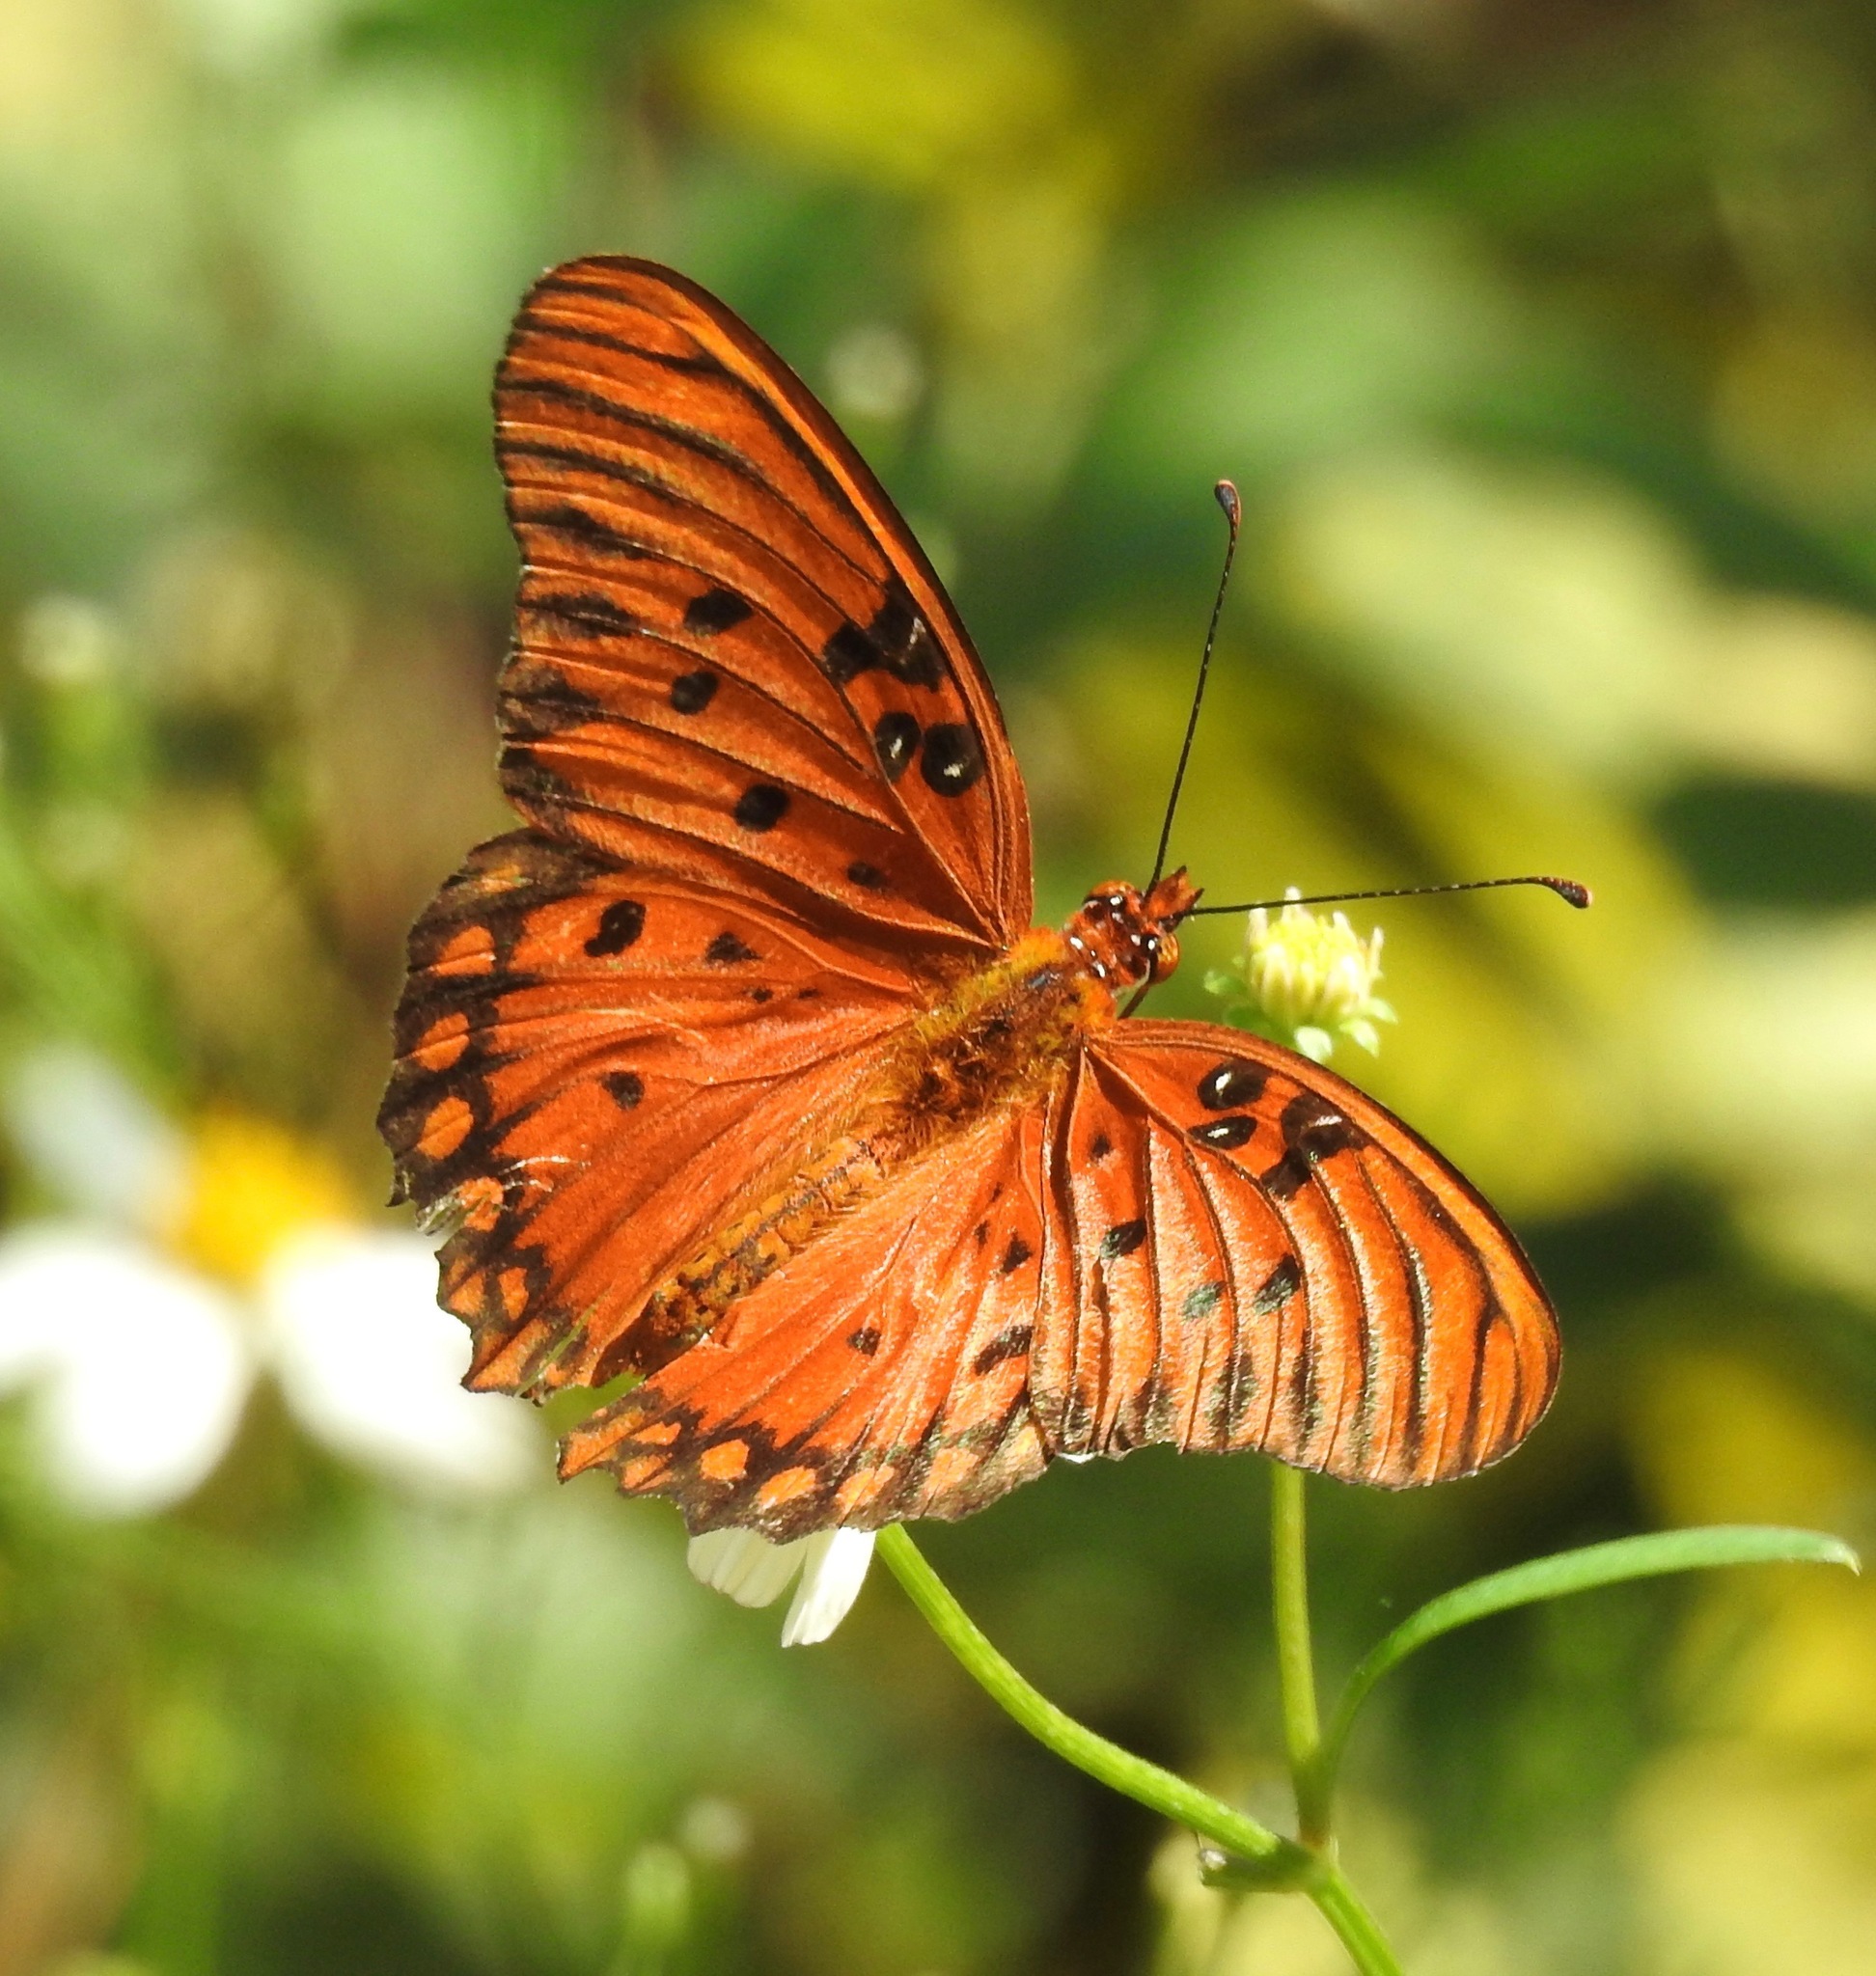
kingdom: Animalia
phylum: Arthropoda
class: Insecta
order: Lepidoptera
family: Nymphalidae
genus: Dione
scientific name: Dione vanillae
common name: Gulf fritillary
